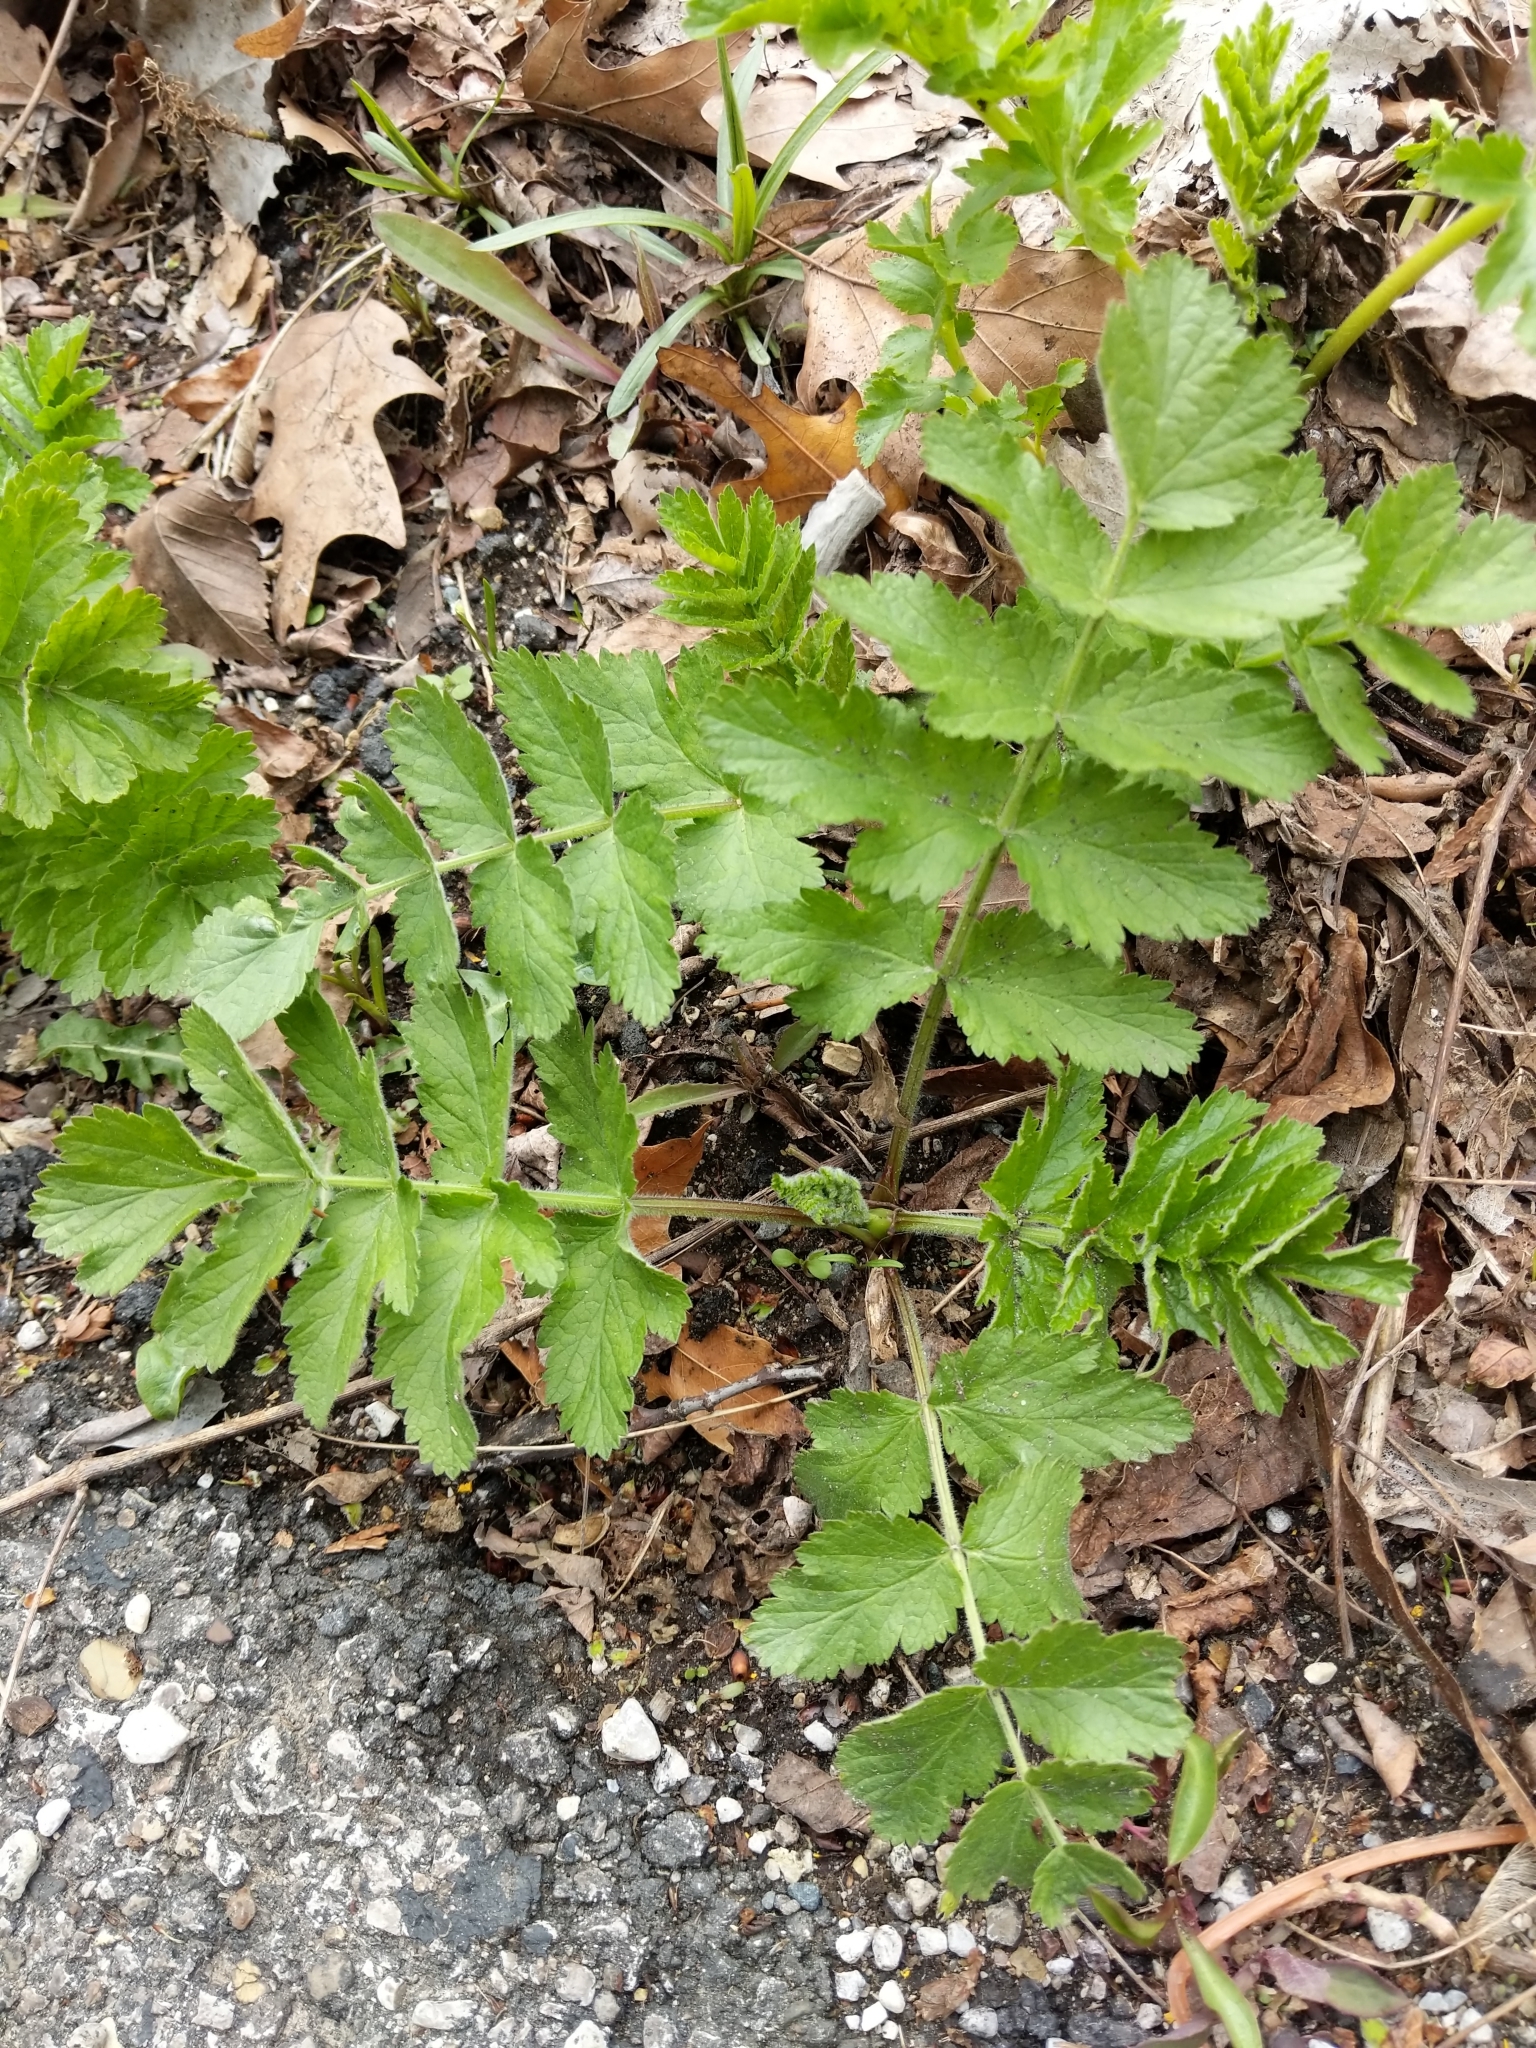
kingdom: Plantae
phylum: Tracheophyta
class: Magnoliopsida
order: Apiales
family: Apiaceae
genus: Pastinaca
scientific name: Pastinaca sativa
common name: Wild parsnip
